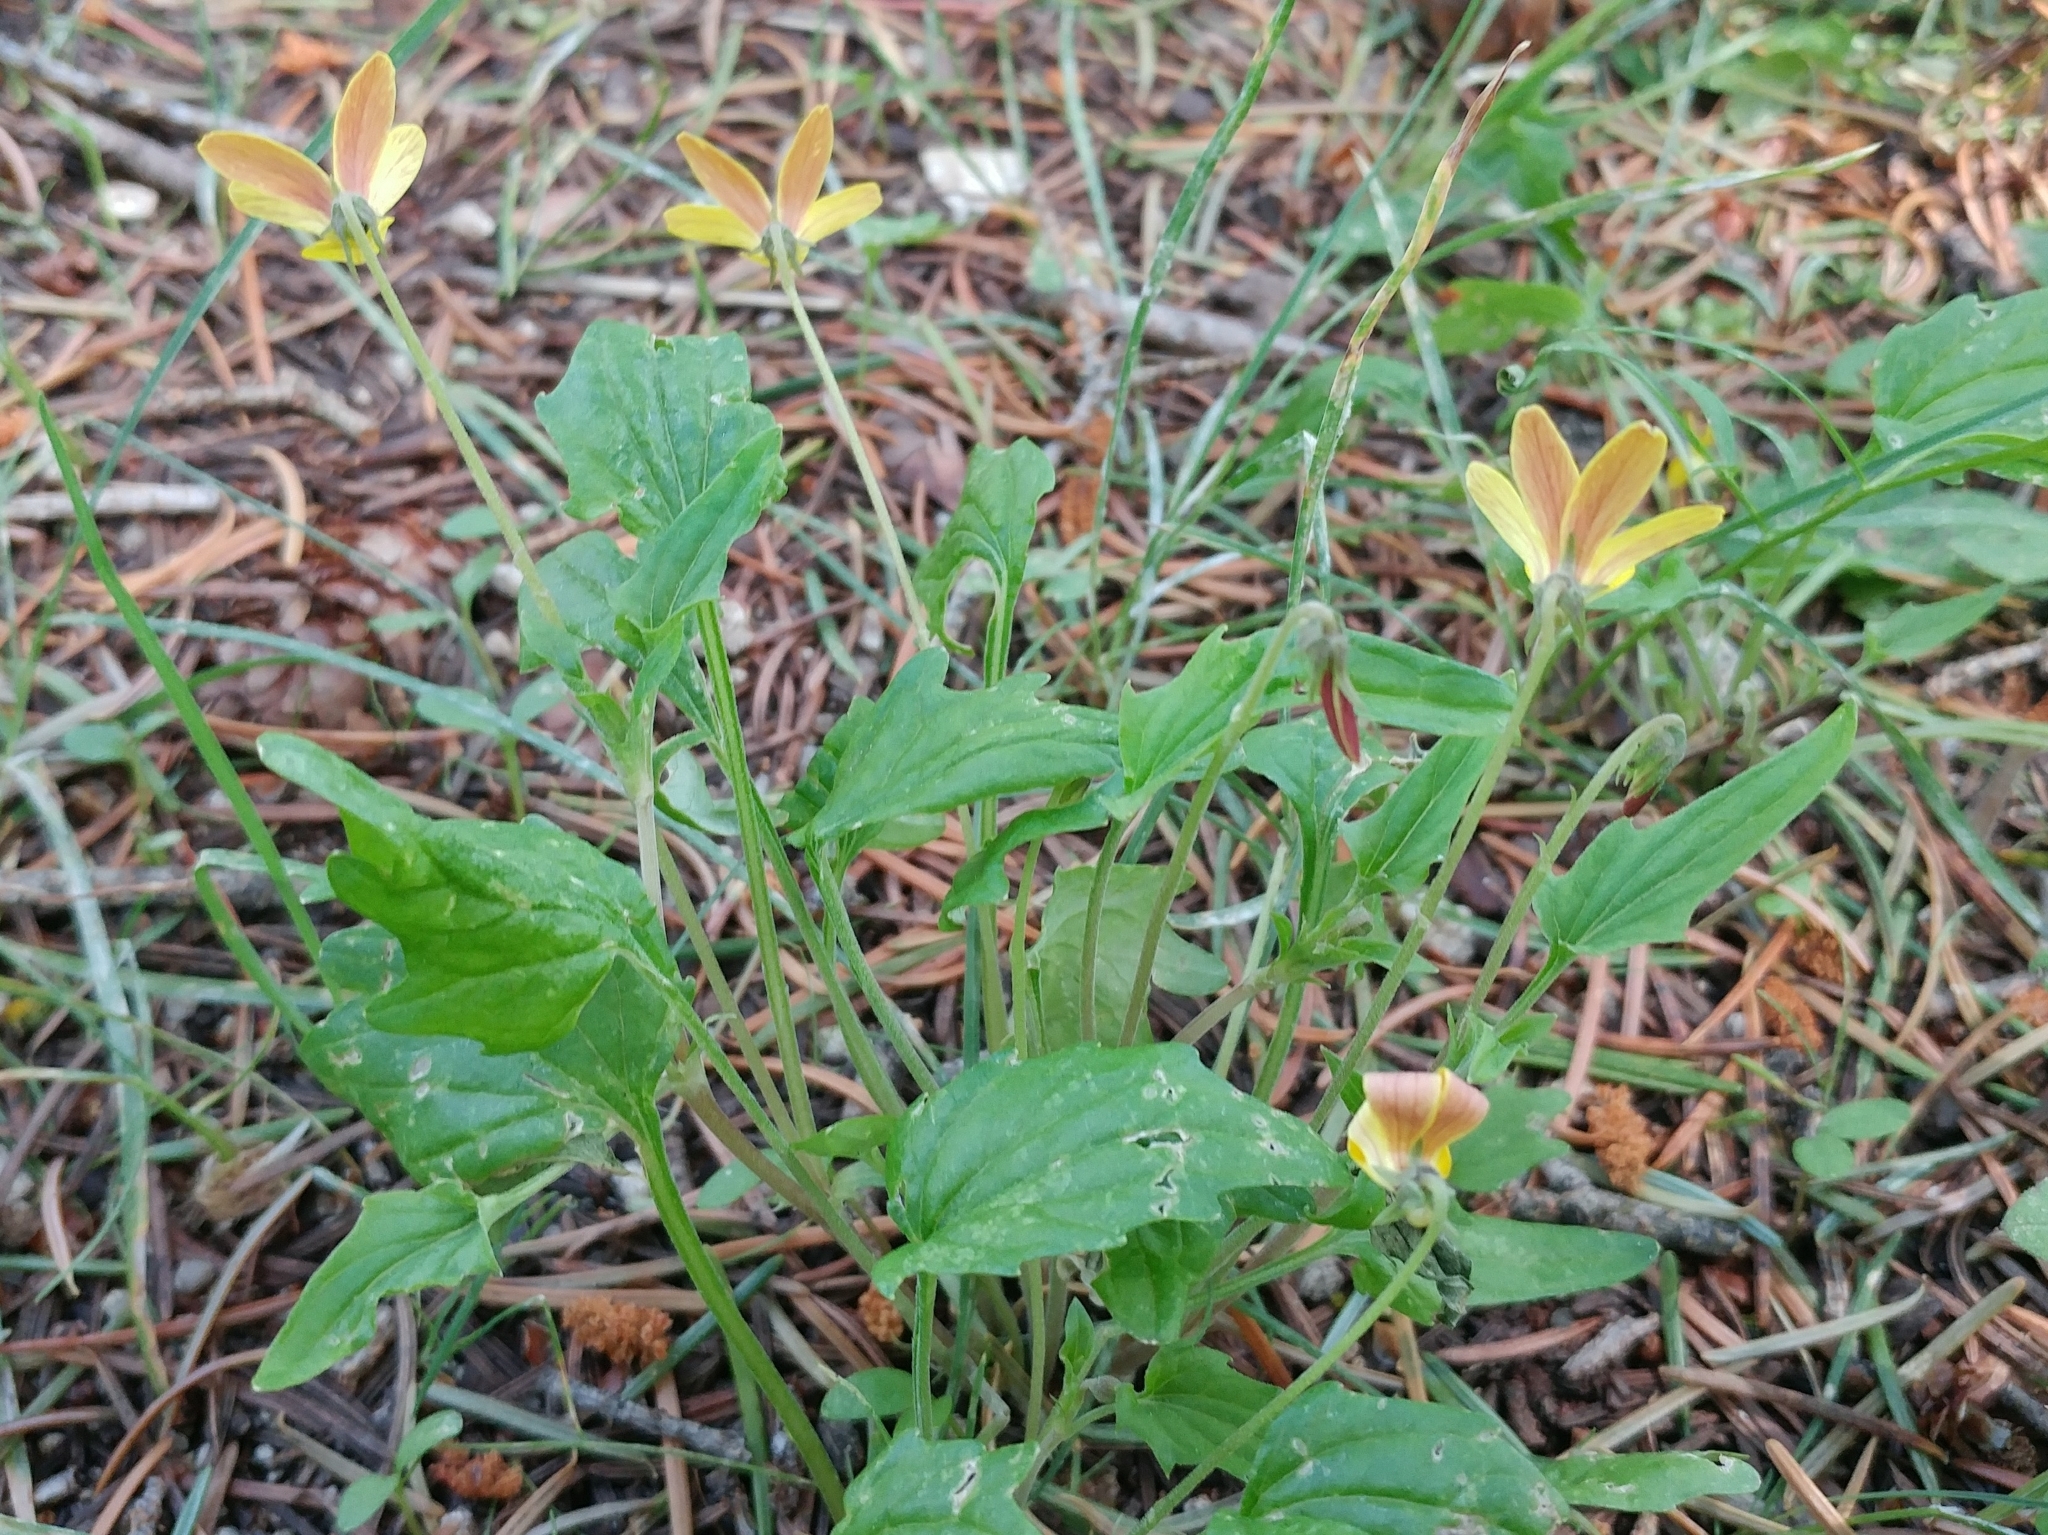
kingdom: Plantae
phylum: Tracheophyta
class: Magnoliopsida
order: Malpighiales
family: Violaceae
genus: Viola
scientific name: Viola purpurea
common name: Pine violet
